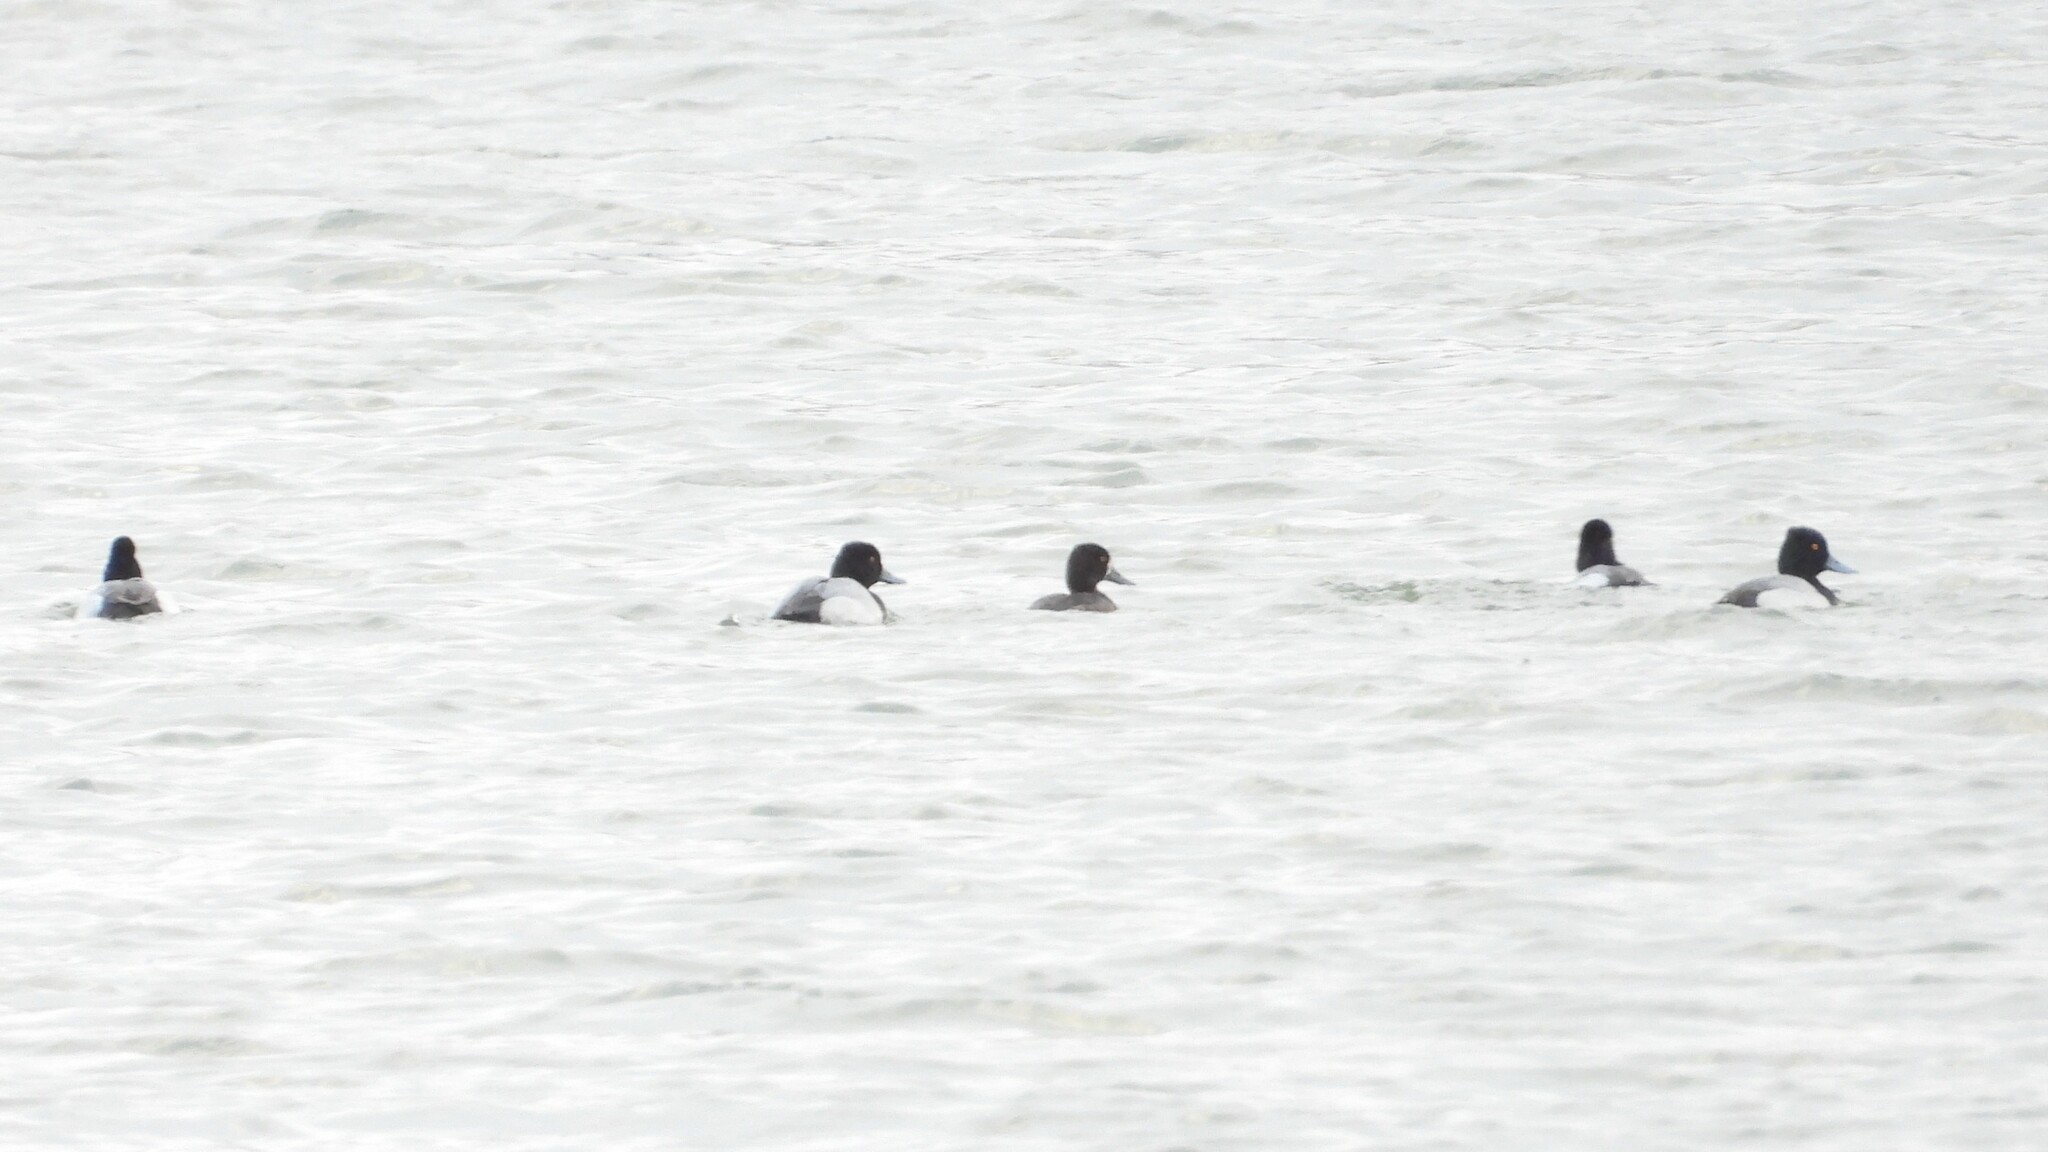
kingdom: Animalia
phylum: Chordata
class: Aves
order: Anseriformes
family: Anatidae
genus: Aythya
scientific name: Aythya affinis
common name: Lesser scaup
